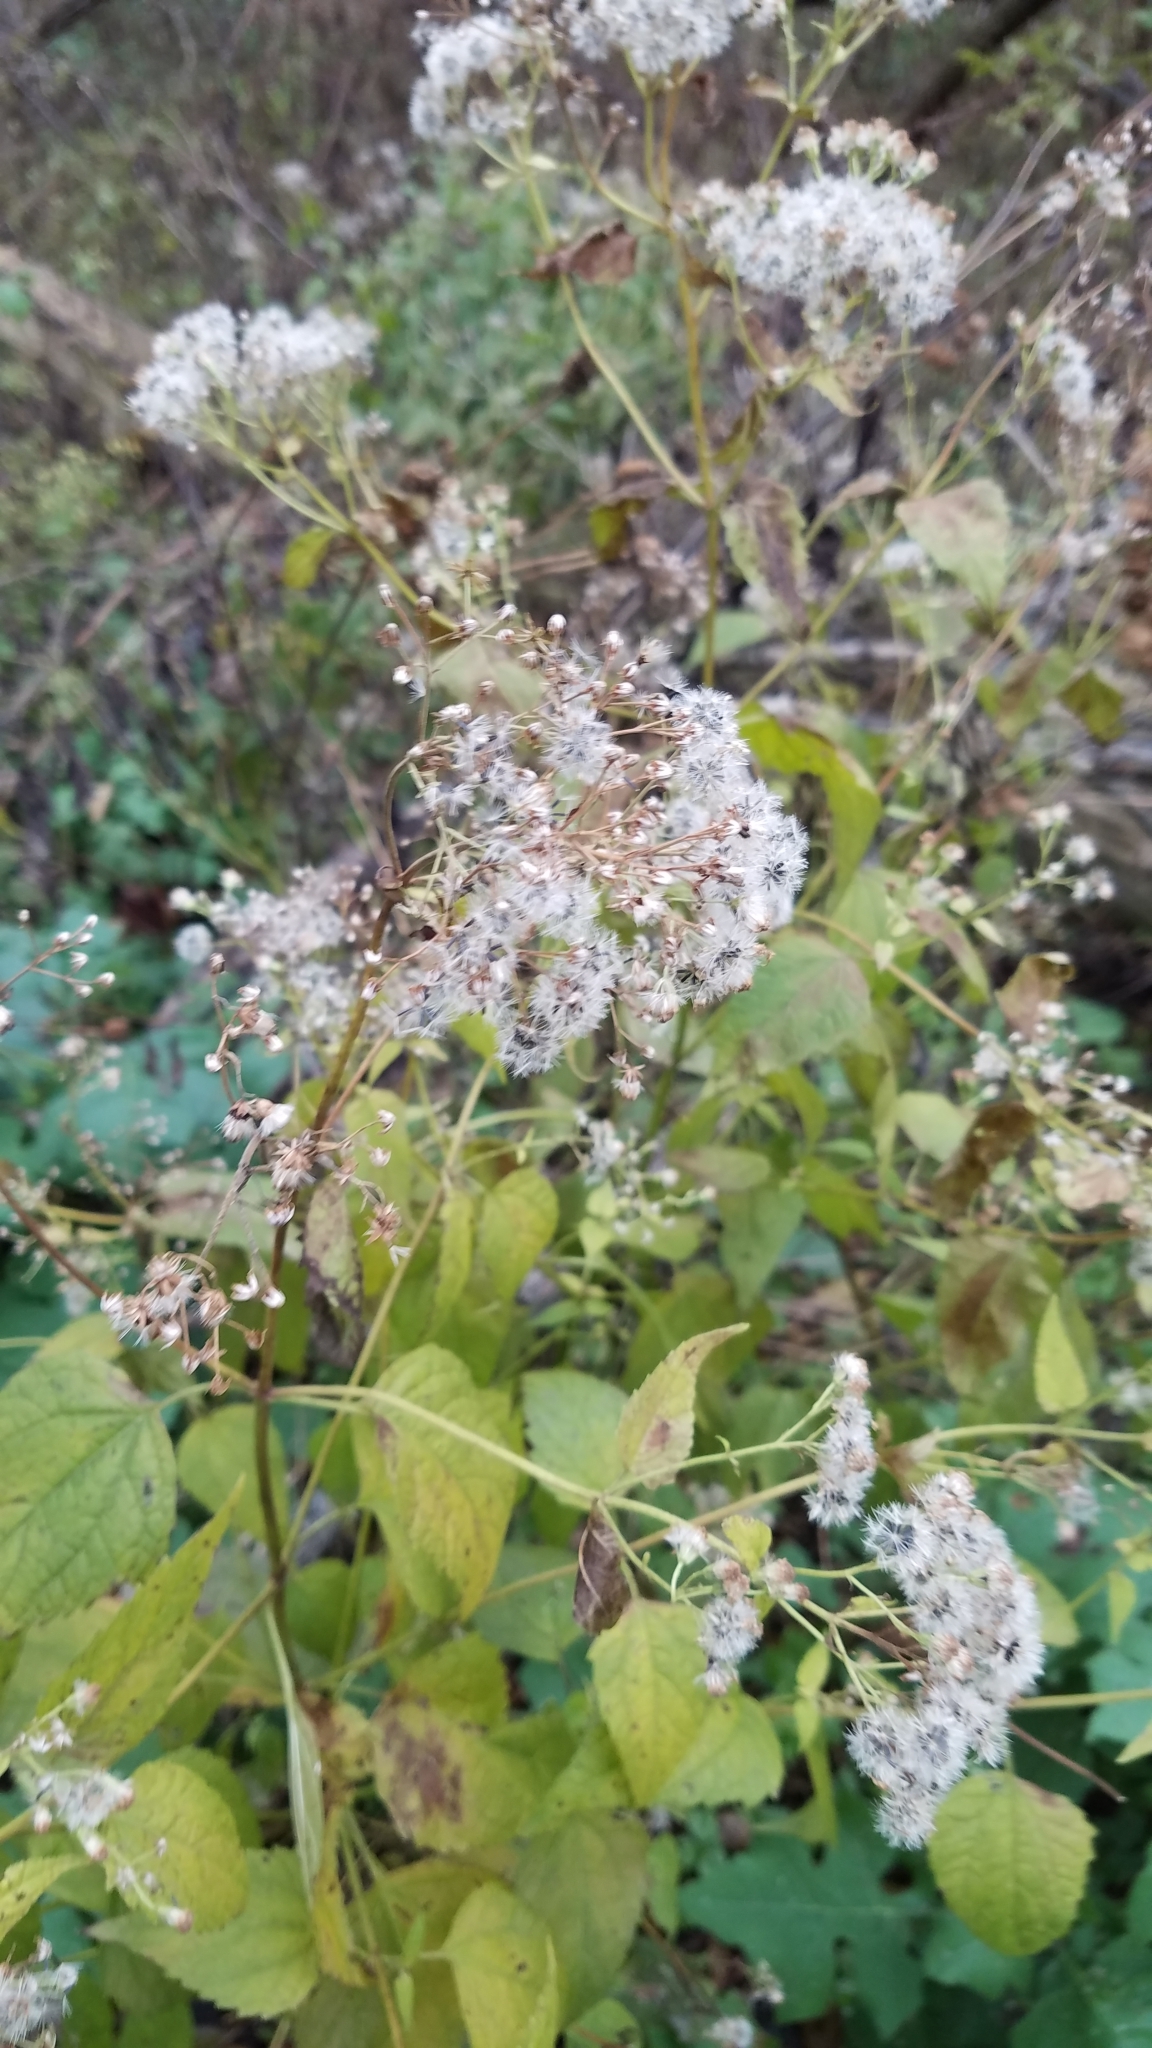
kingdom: Plantae
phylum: Tracheophyta
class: Magnoliopsida
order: Asterales
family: Asteraceae
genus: Ageratina
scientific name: Ageratina altissima
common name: White snakeroot
